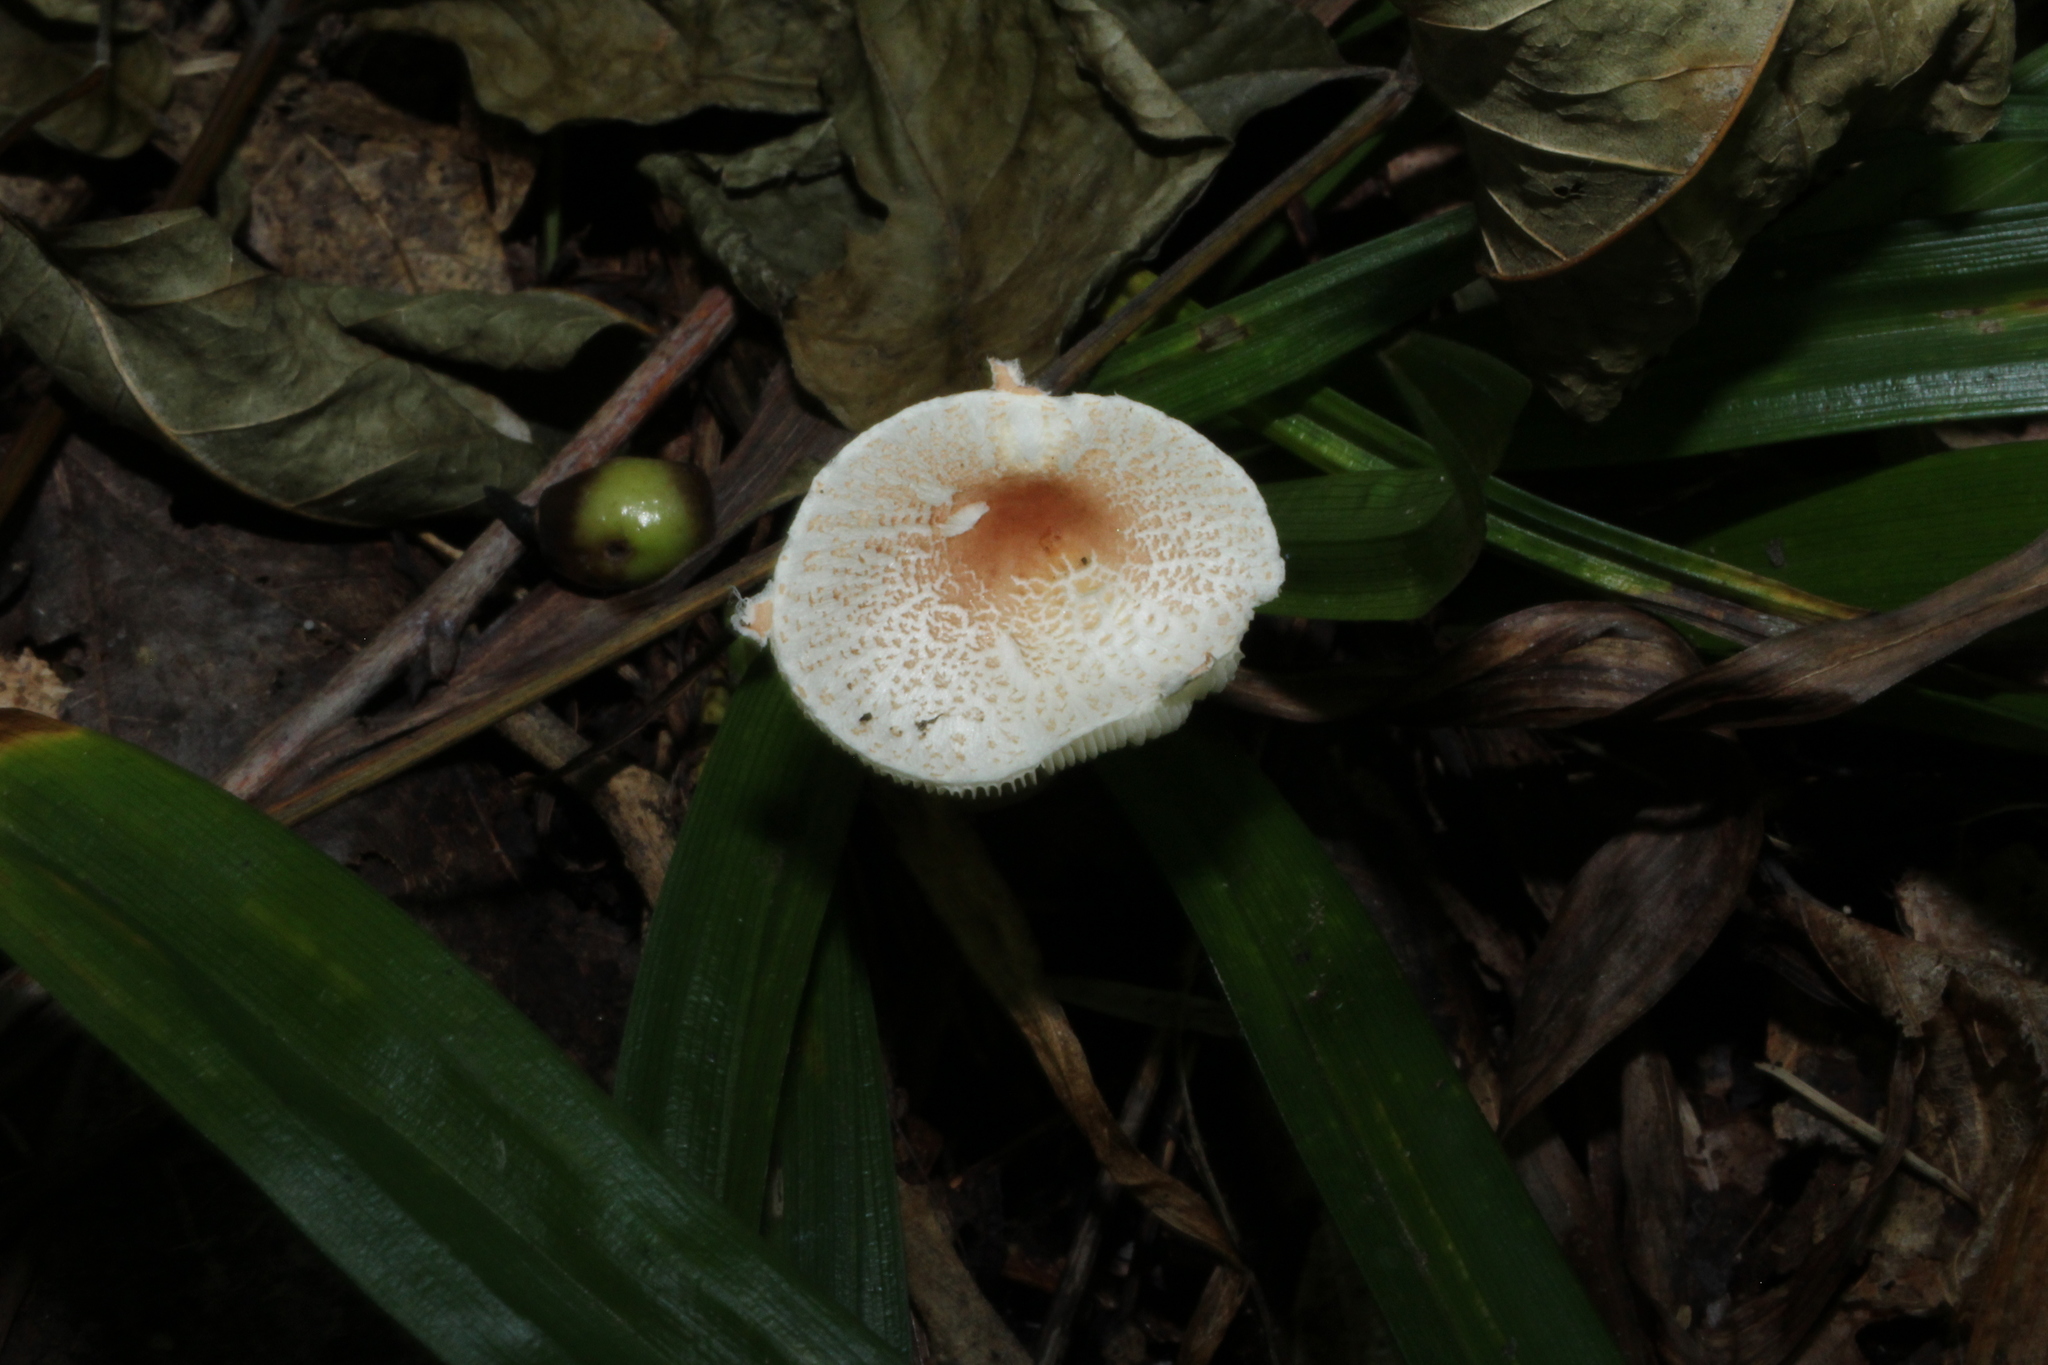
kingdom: Fungi
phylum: Basidiomycota
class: Agaricomycetes
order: Agaricales
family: Agaricaceae
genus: Lepiota
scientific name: Lepiota cristata
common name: Stinking dapperling
